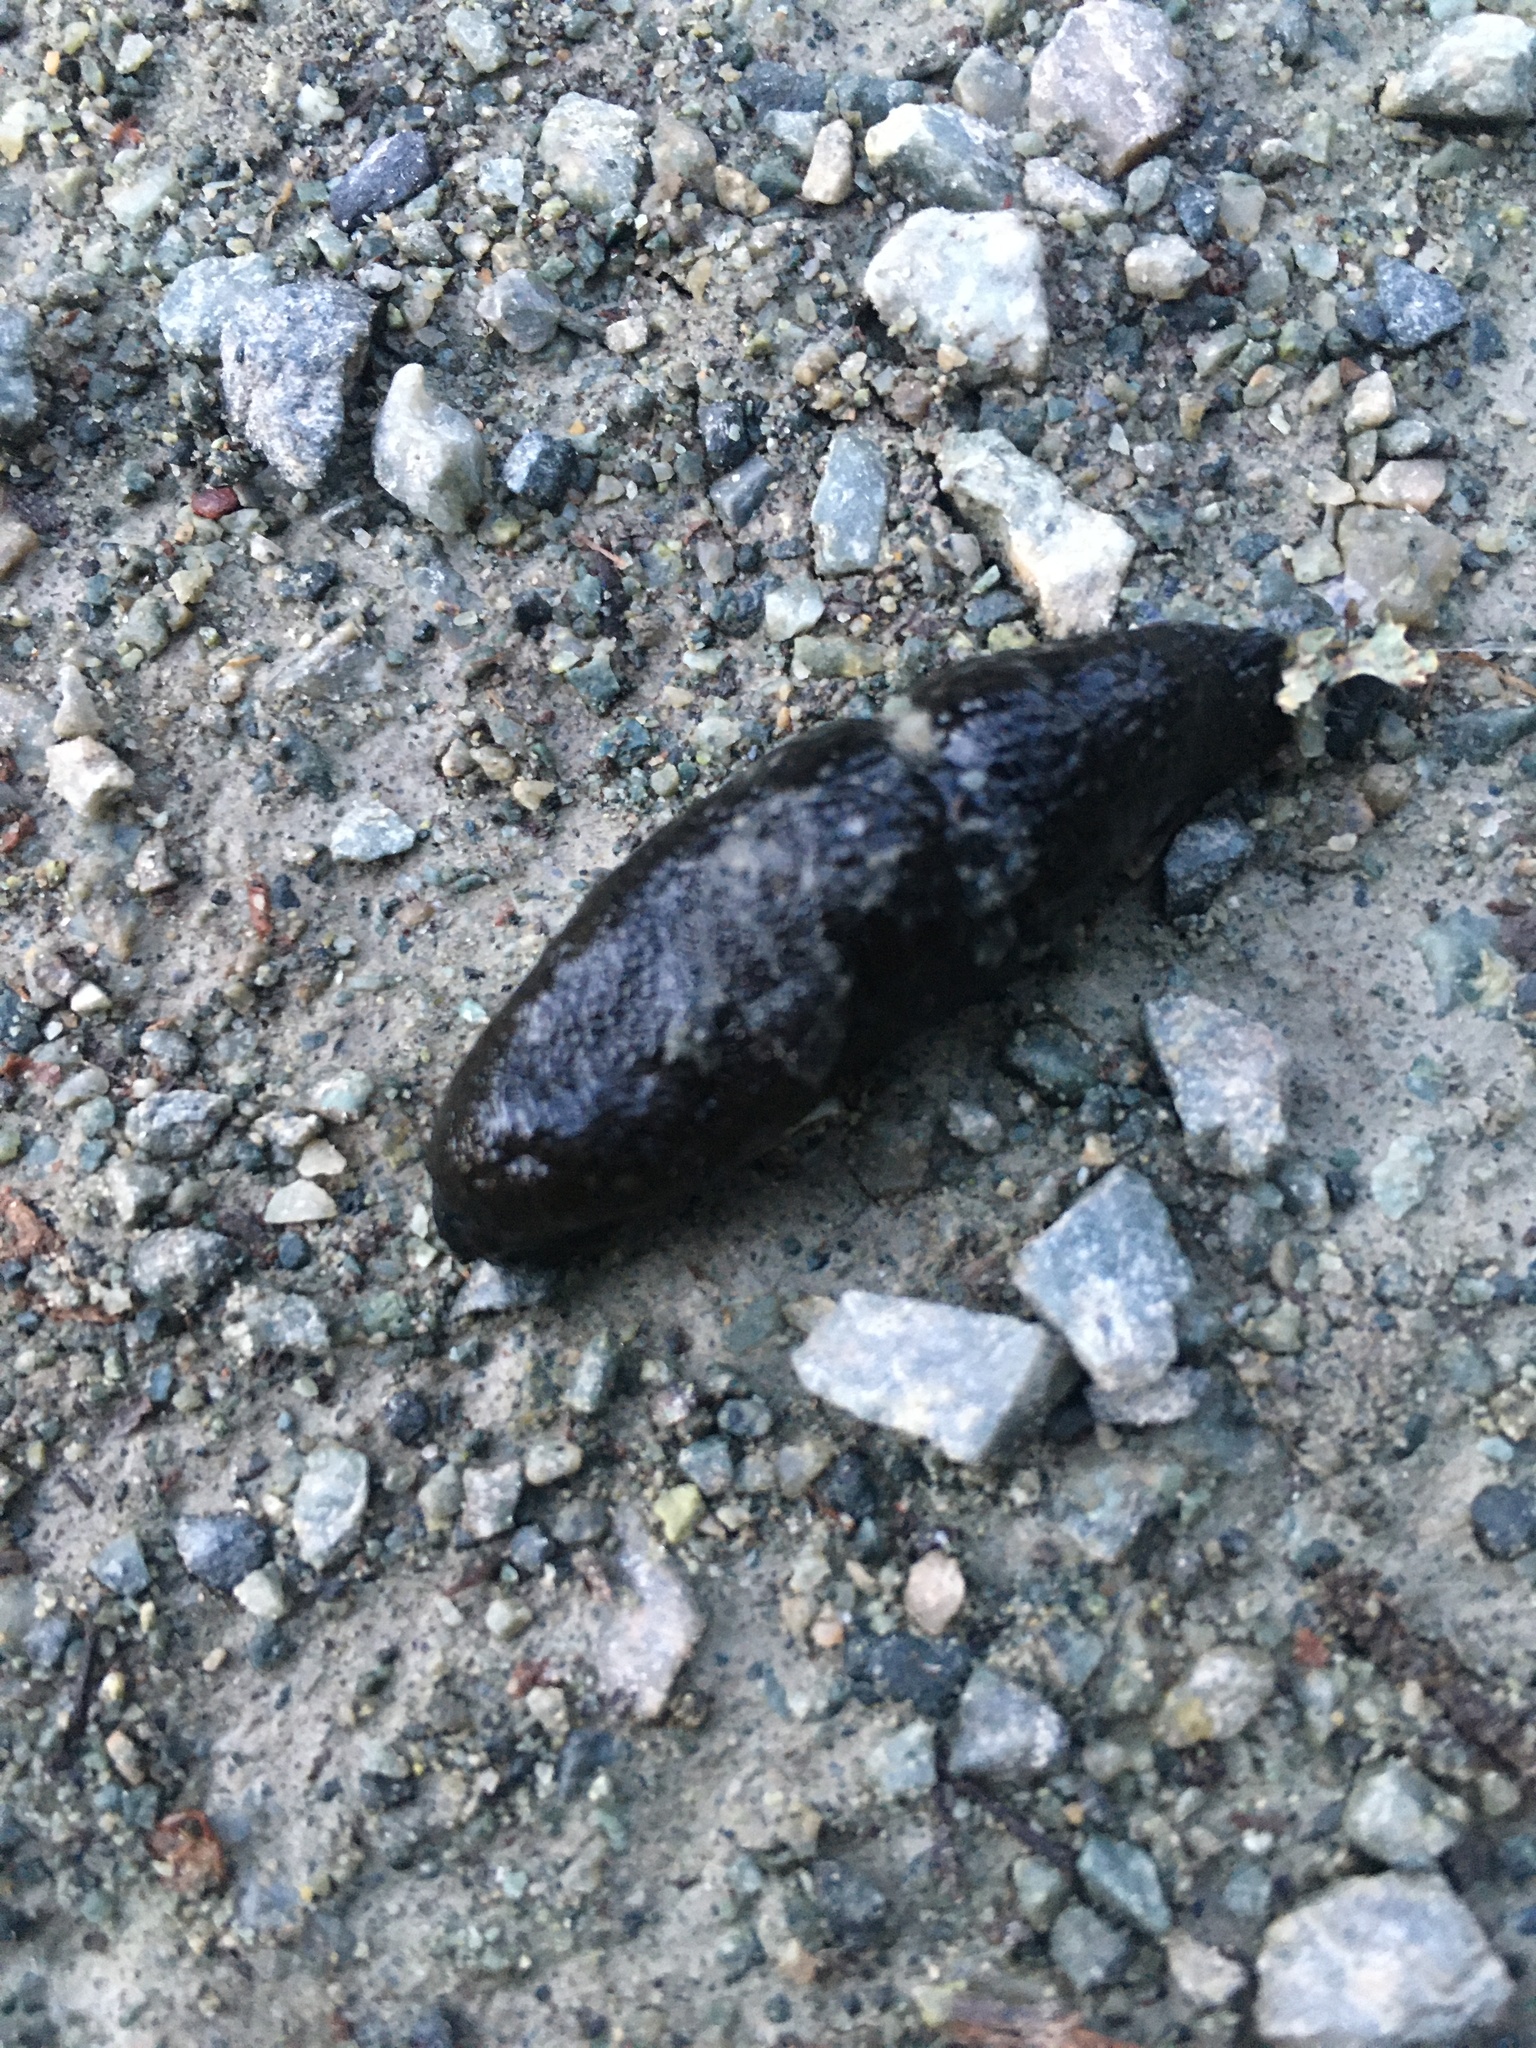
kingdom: Animalia
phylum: Mollusca
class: Gastropoda
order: Stylommatophora
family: Arionidae
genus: Arion
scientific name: Arion
